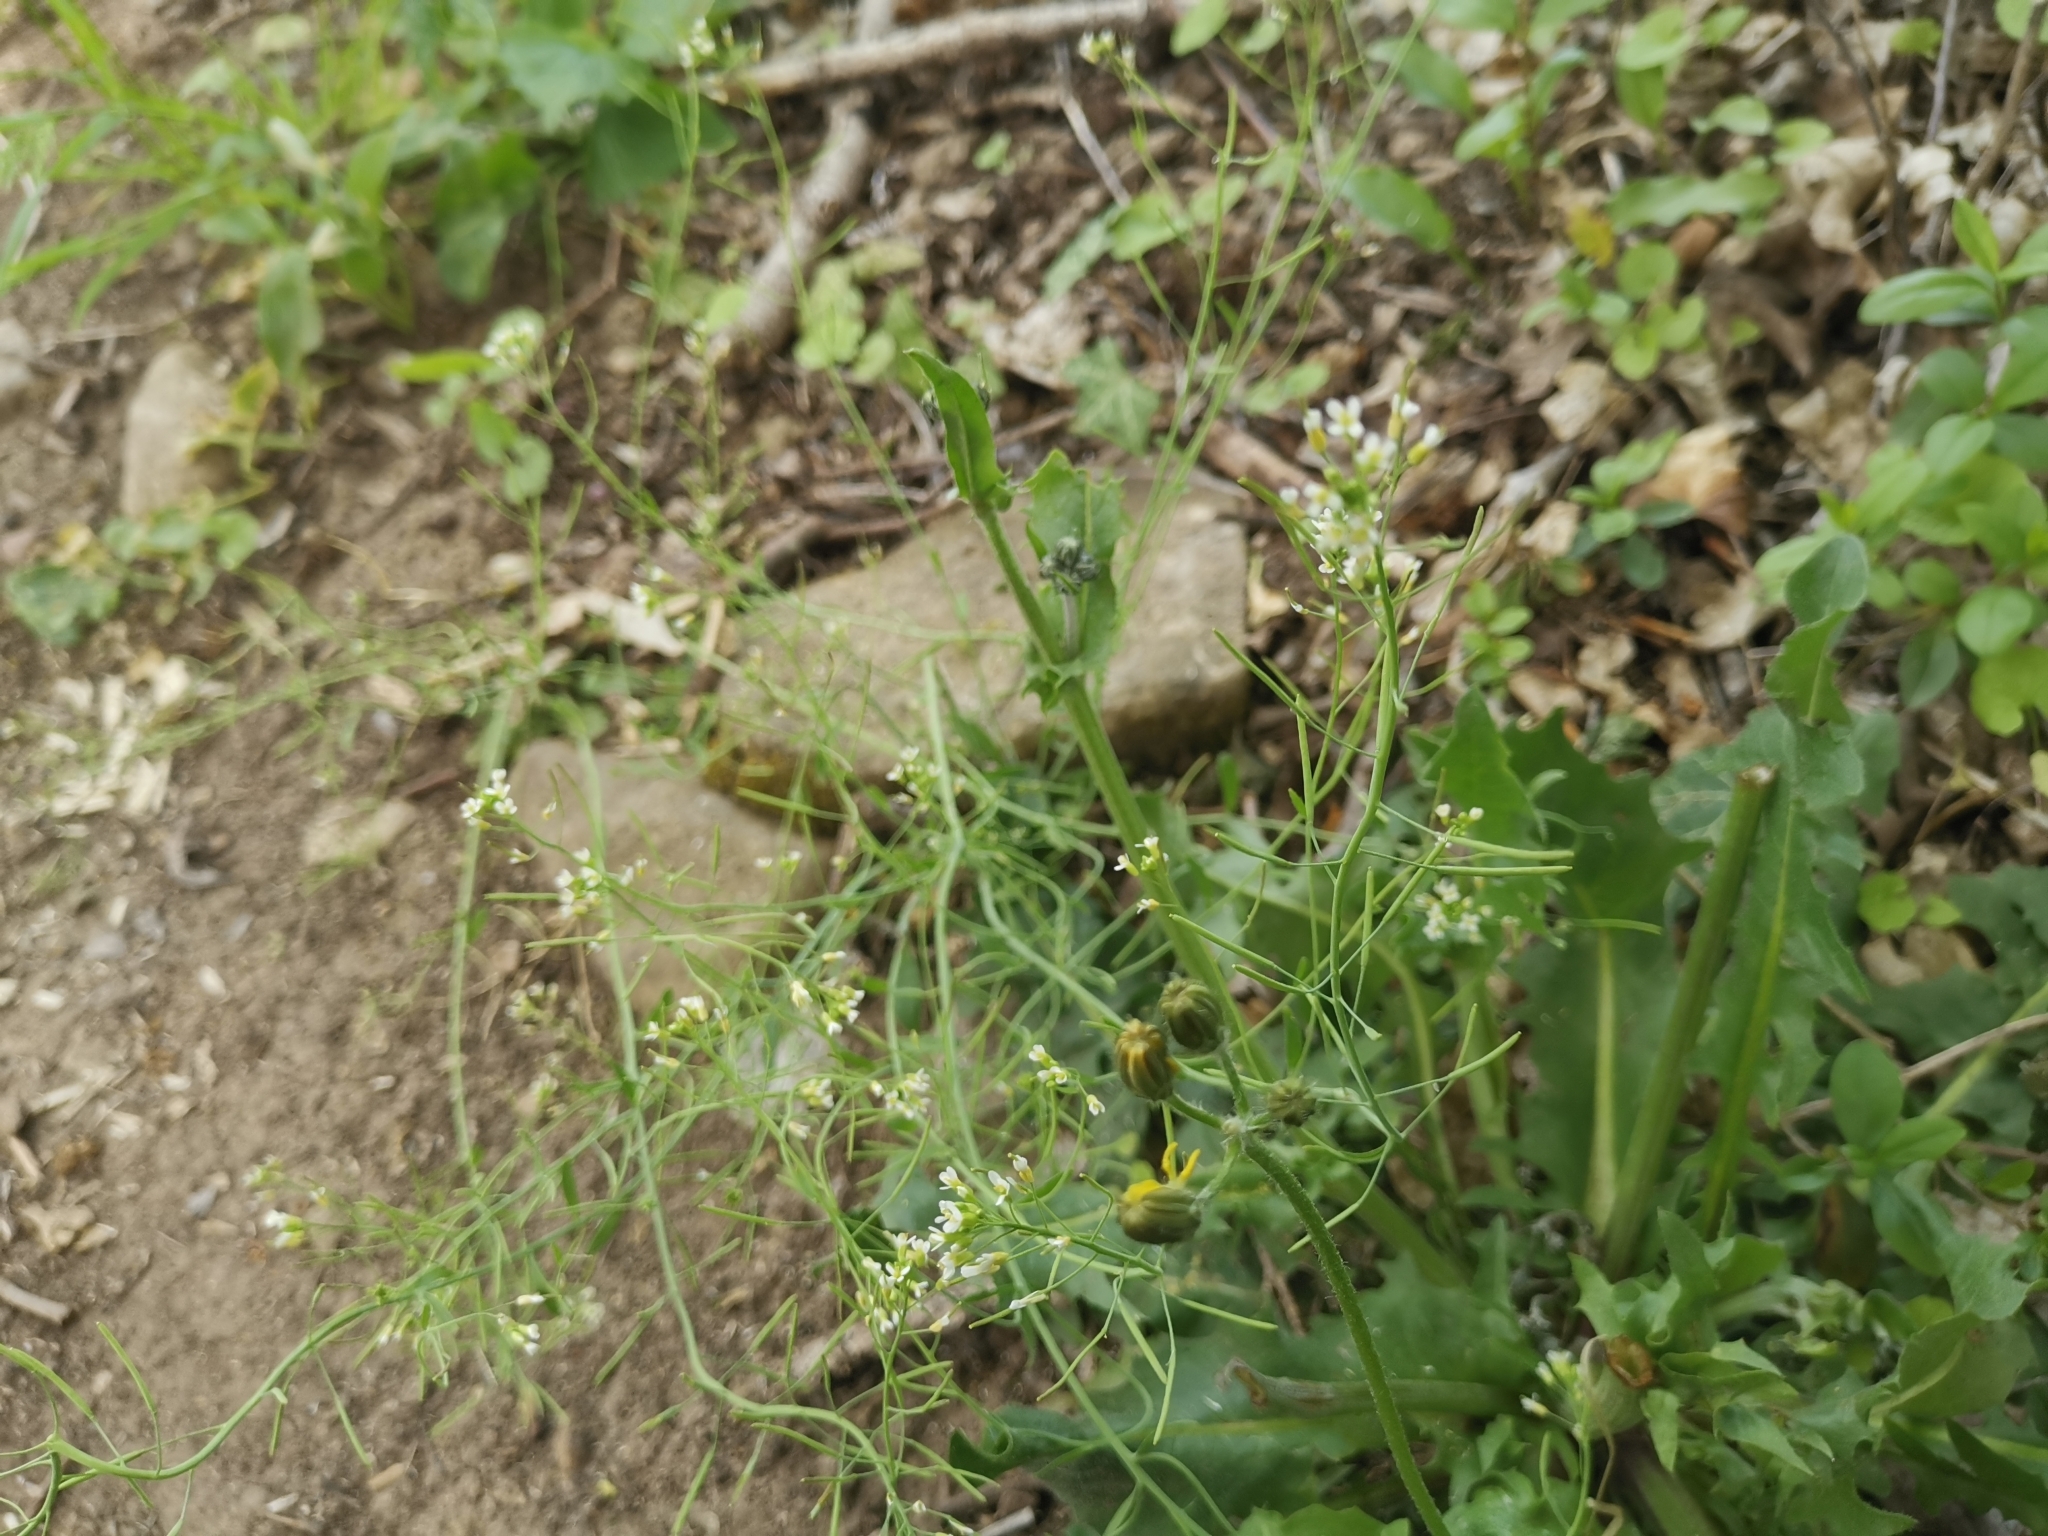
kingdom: Plantae
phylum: Tracheophyta
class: Magnoliopsida
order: Brassicales
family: Brassicaceae
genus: Arabidopsis
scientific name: Arabidopsis thaliana
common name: Thale cress
